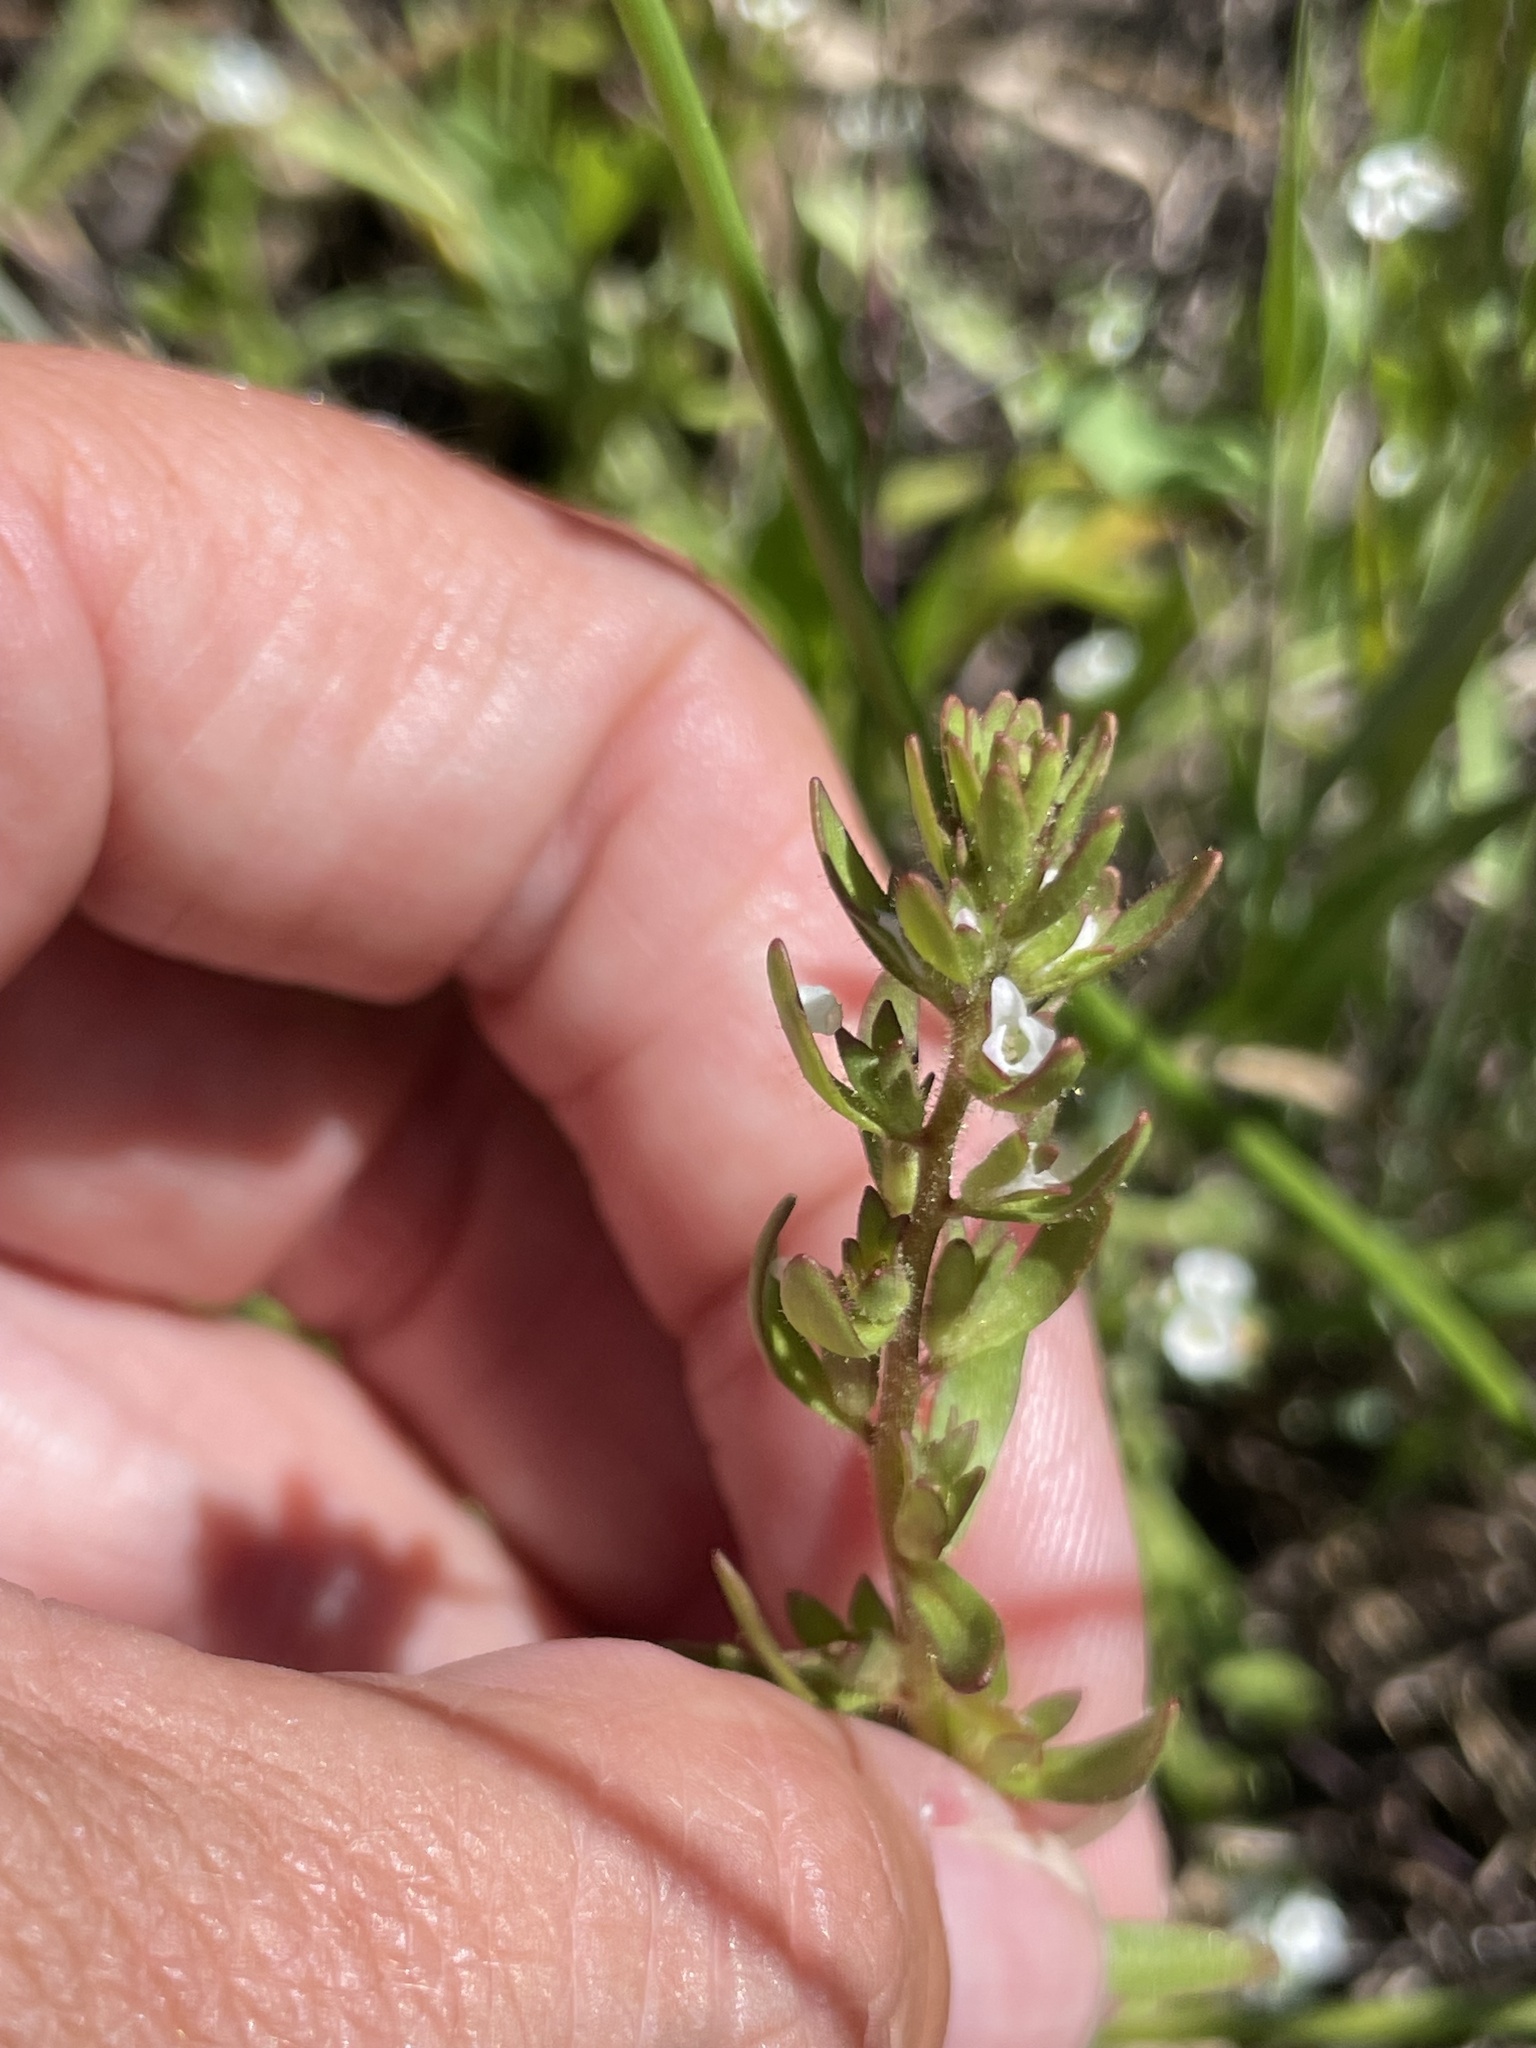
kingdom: Plantae
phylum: Tracheophyta
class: Magnoliopsida
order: Lamiales
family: Plantaginaceae
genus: Veronica
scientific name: Veronica peregrina
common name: Neckweed
